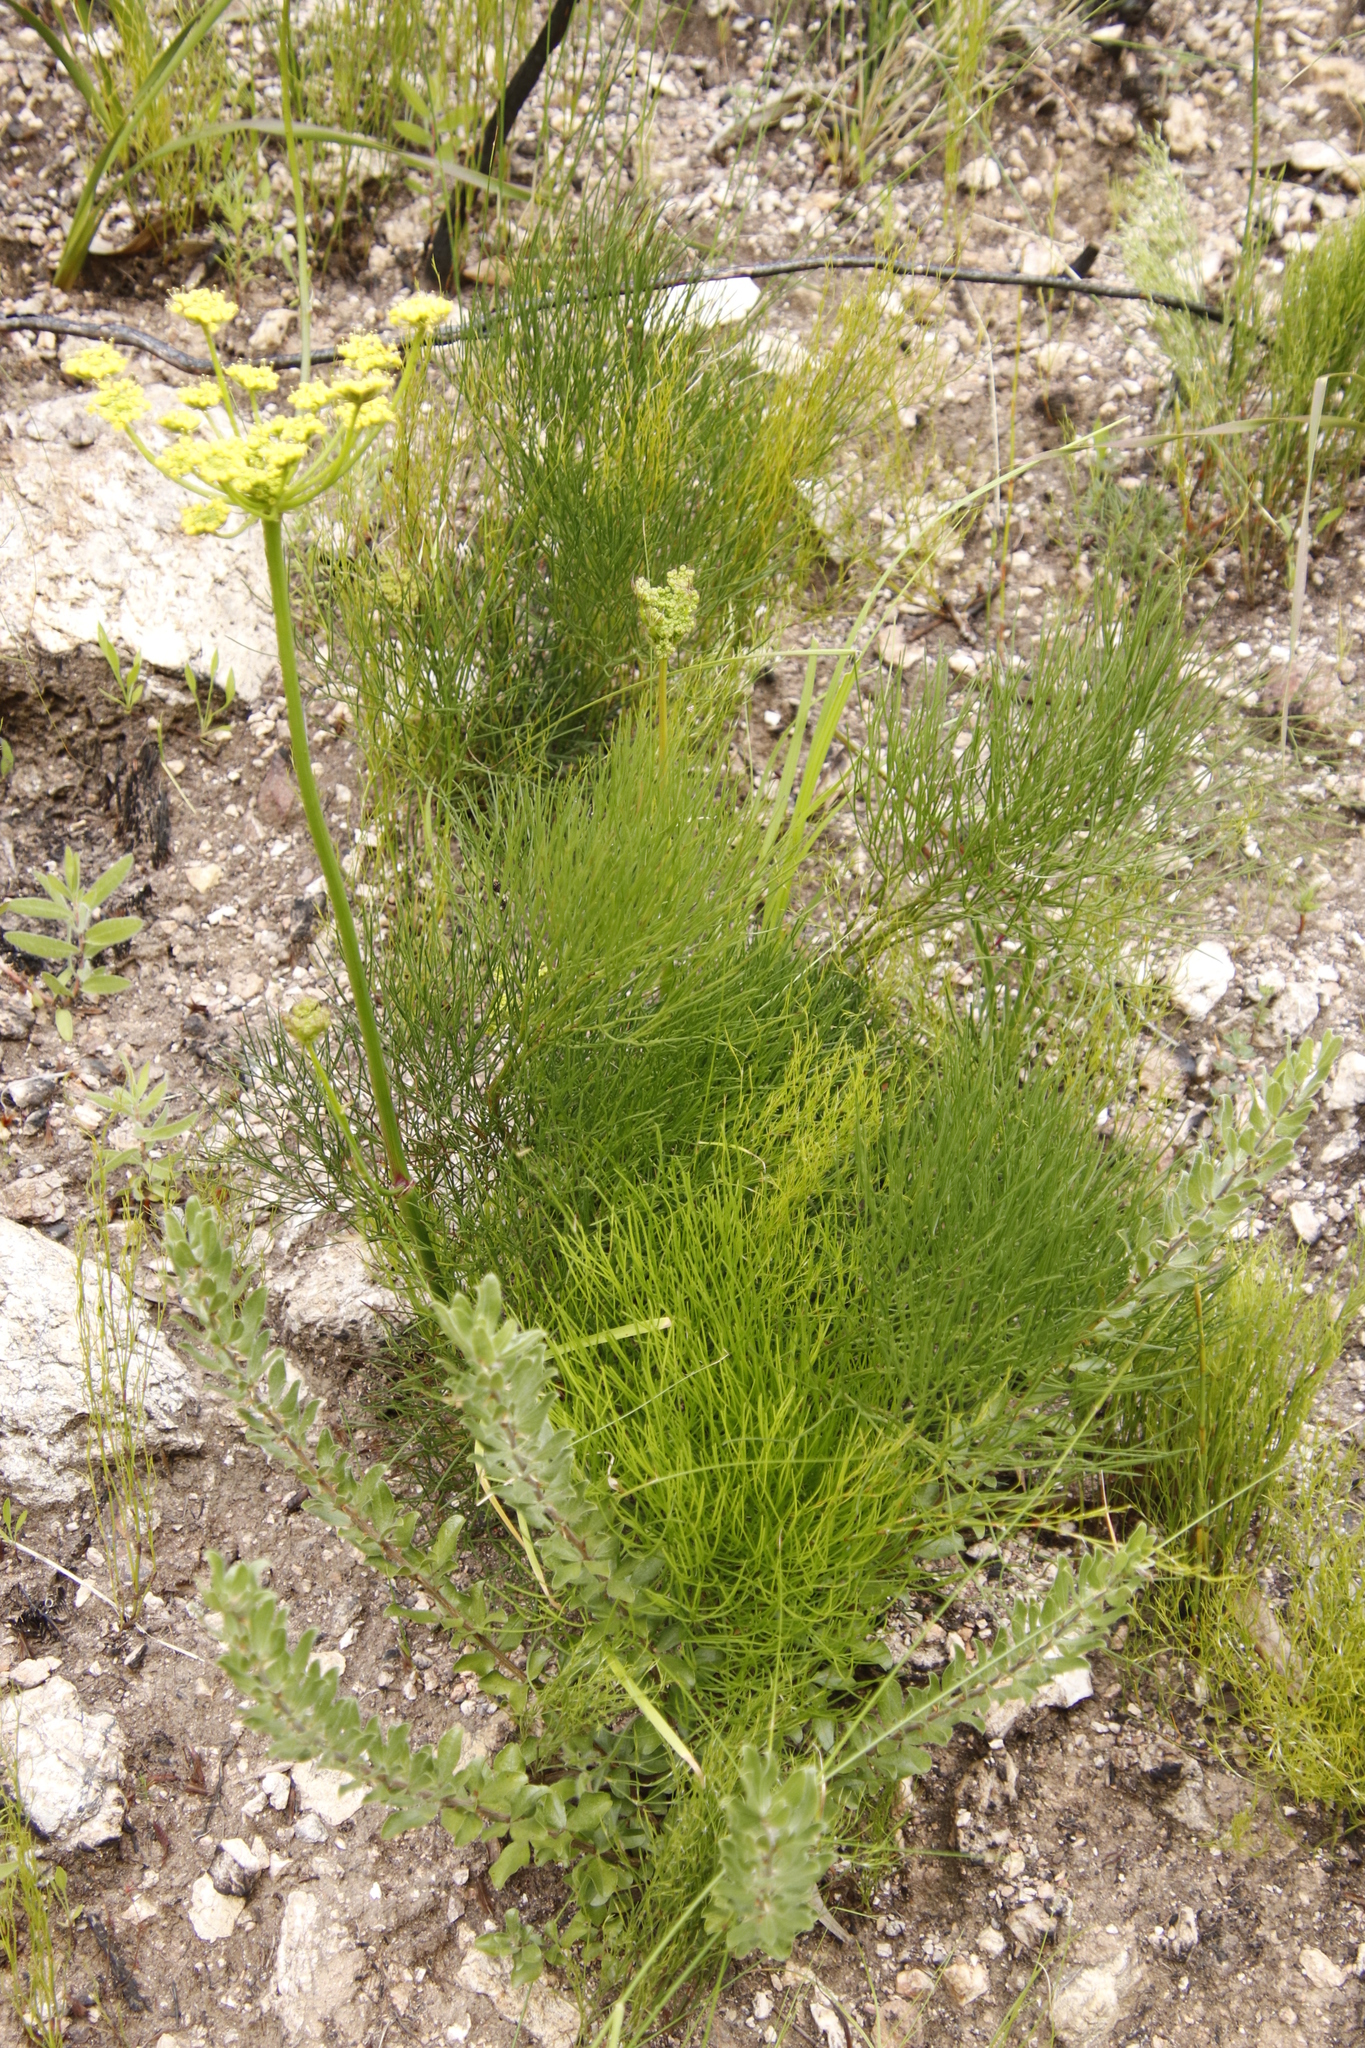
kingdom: Plantae
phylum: Tracheophyta
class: Magnoliopsida
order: Apiales
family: Apiaceae
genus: Nanobubon
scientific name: Nanobubon strictum
